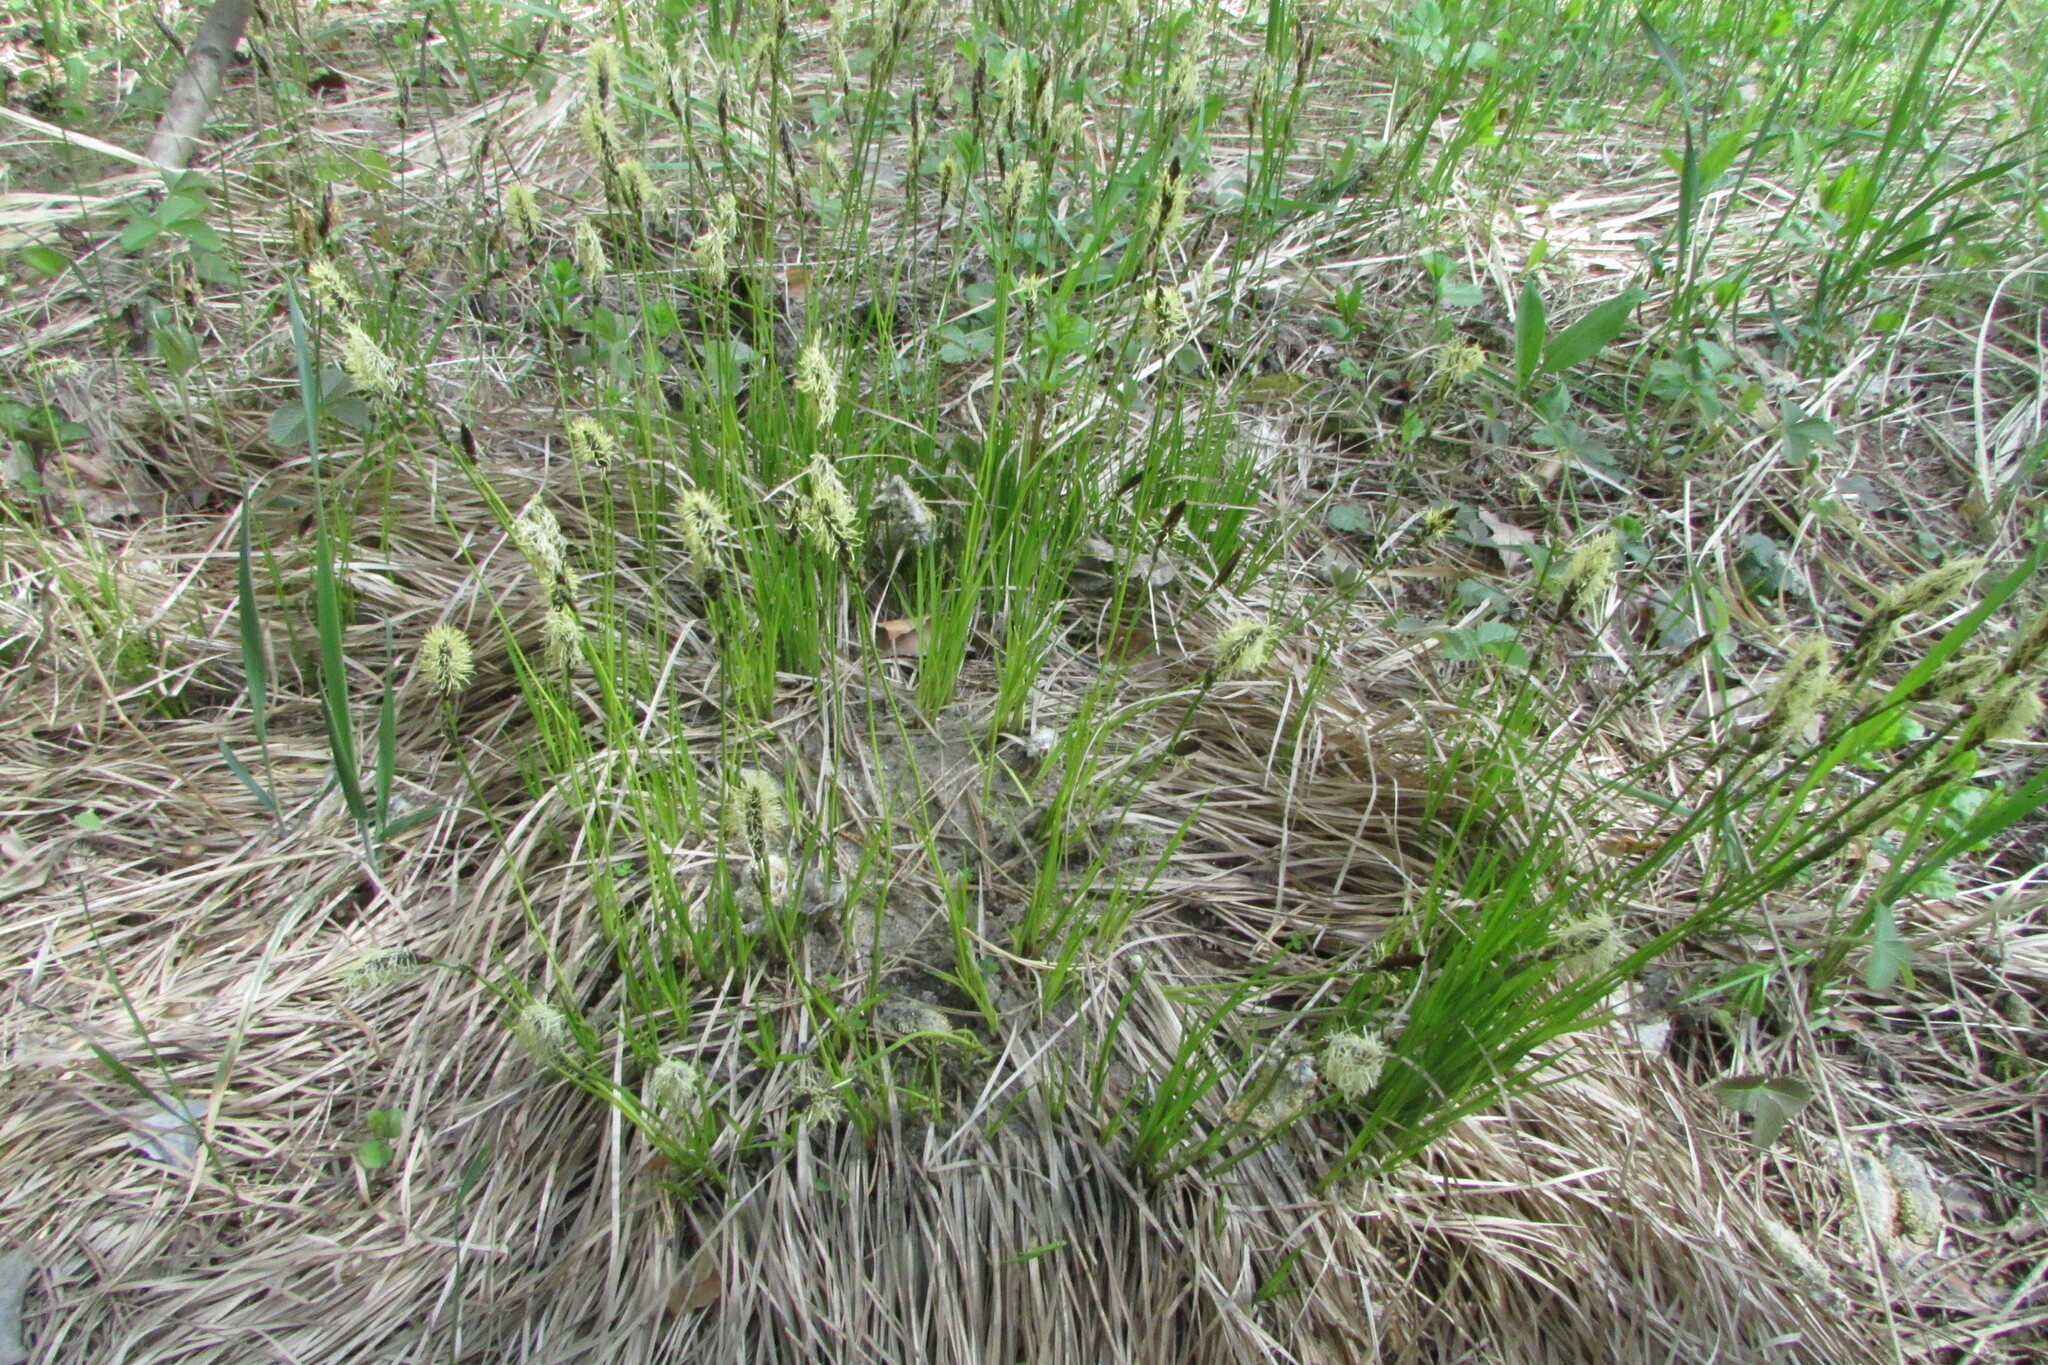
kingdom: Plantae
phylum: Tracheophyta
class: Liliopsida
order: Poales
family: Cyperaceae
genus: Carex
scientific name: Carex montana
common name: Soft-leaved sedge
